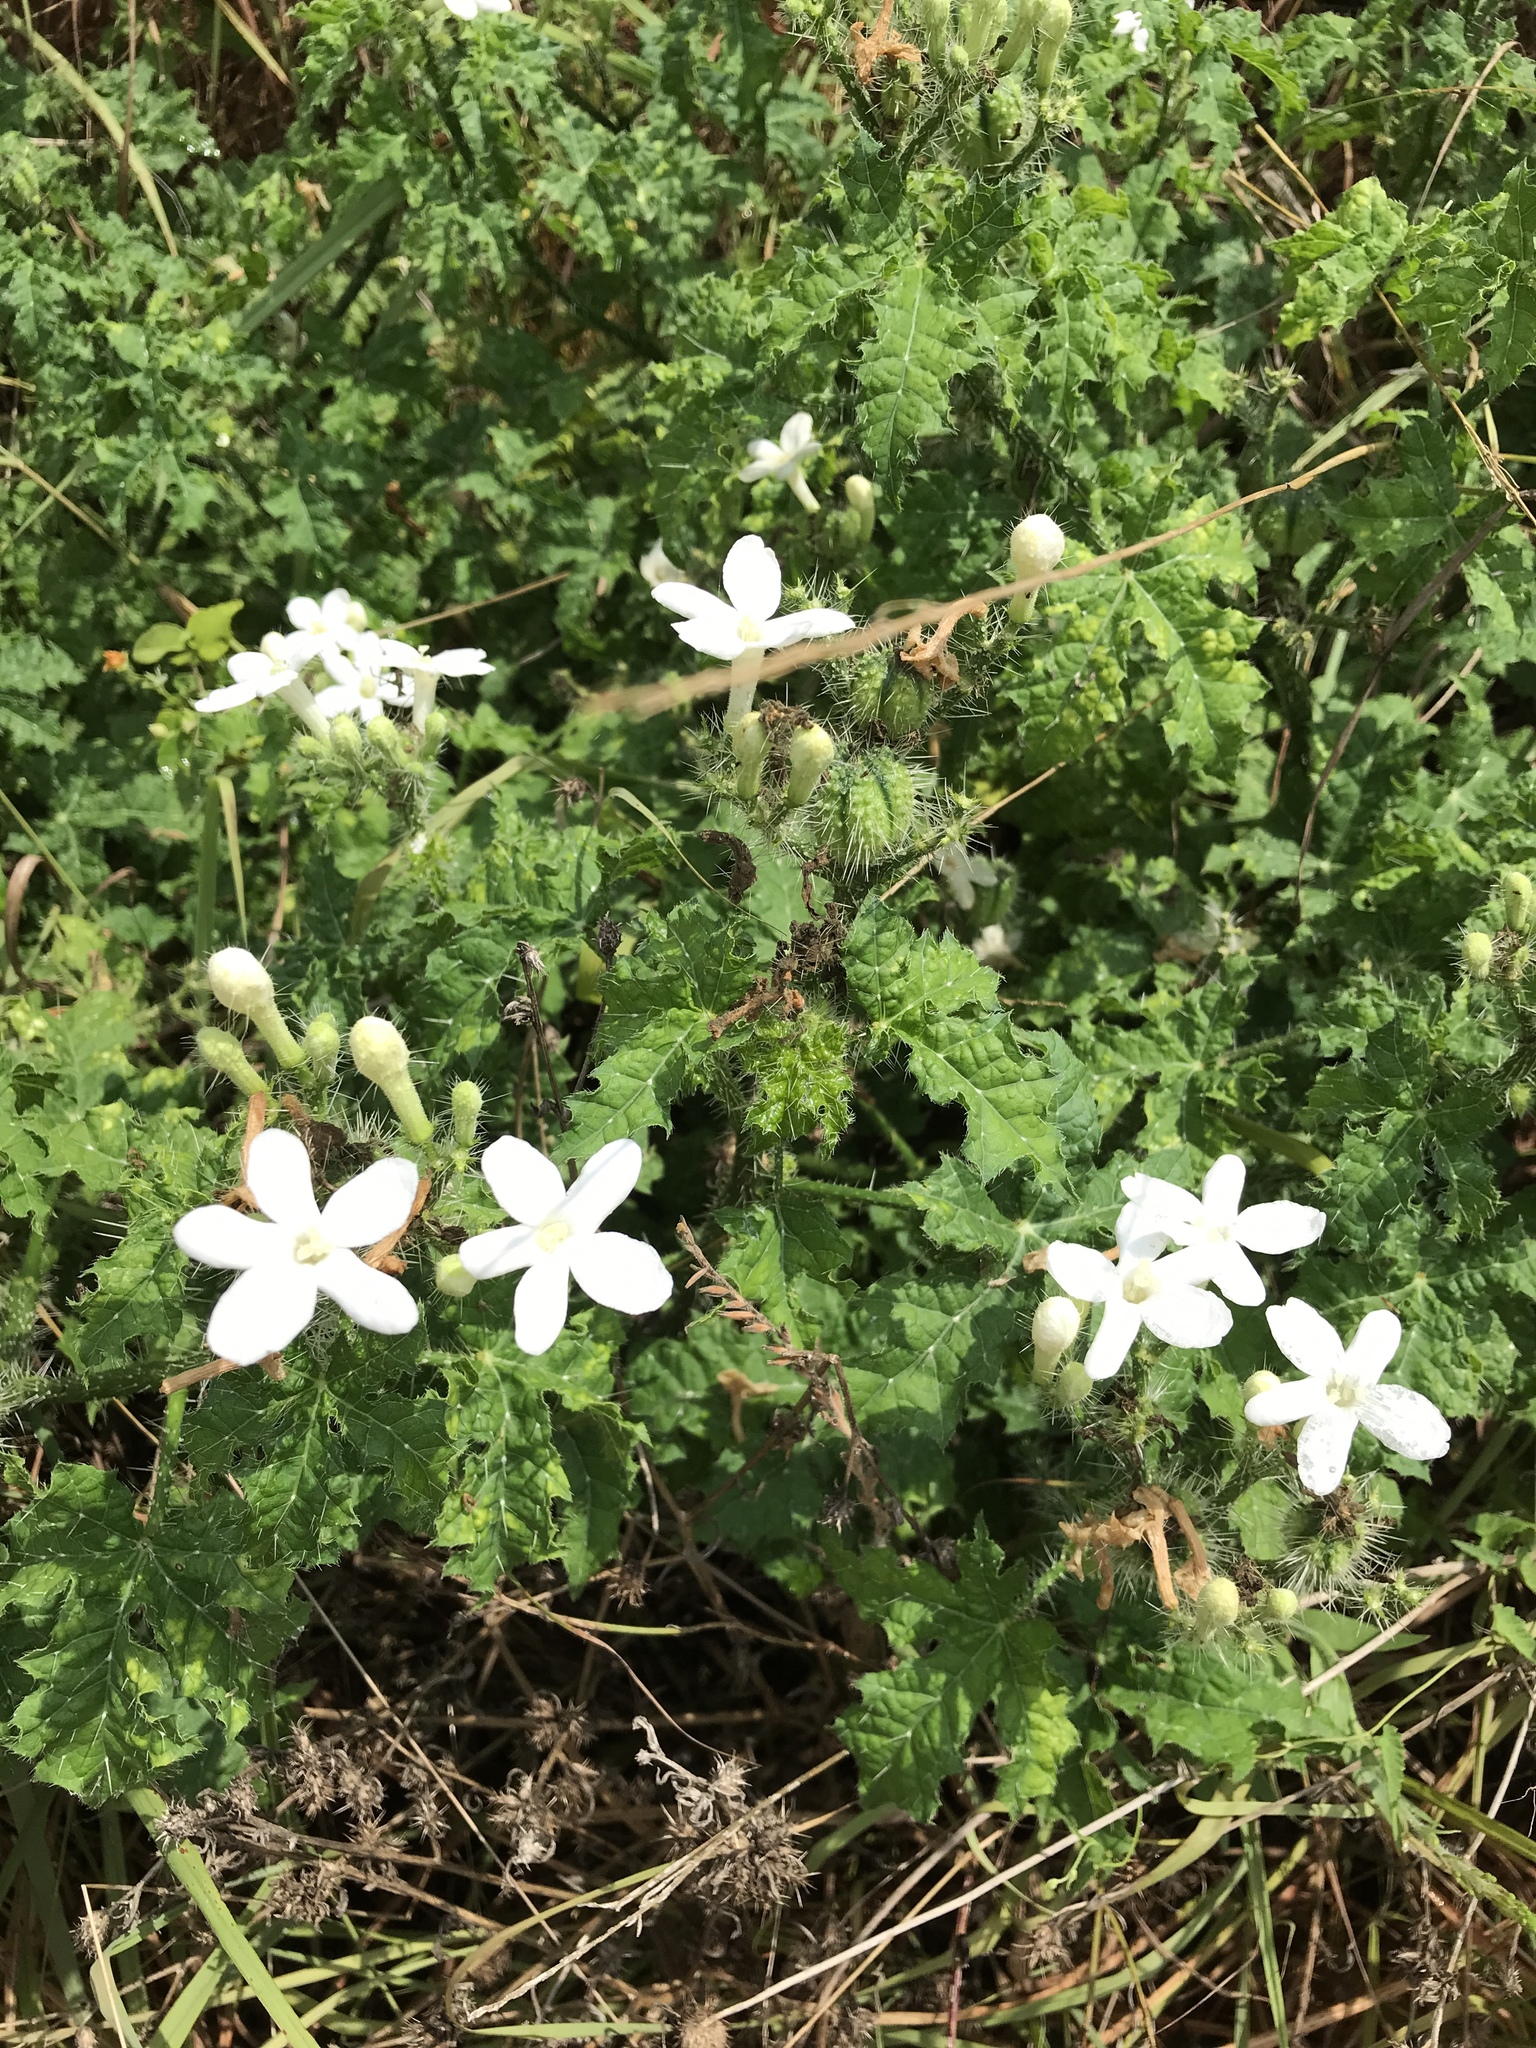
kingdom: Plantae
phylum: Tracheophyta
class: Magnoliopsida
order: Malpighiales
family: Euphorbiaceae
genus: Cnidoscolus
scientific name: Cnidoscolus texanus
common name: Texas bull-nettle
